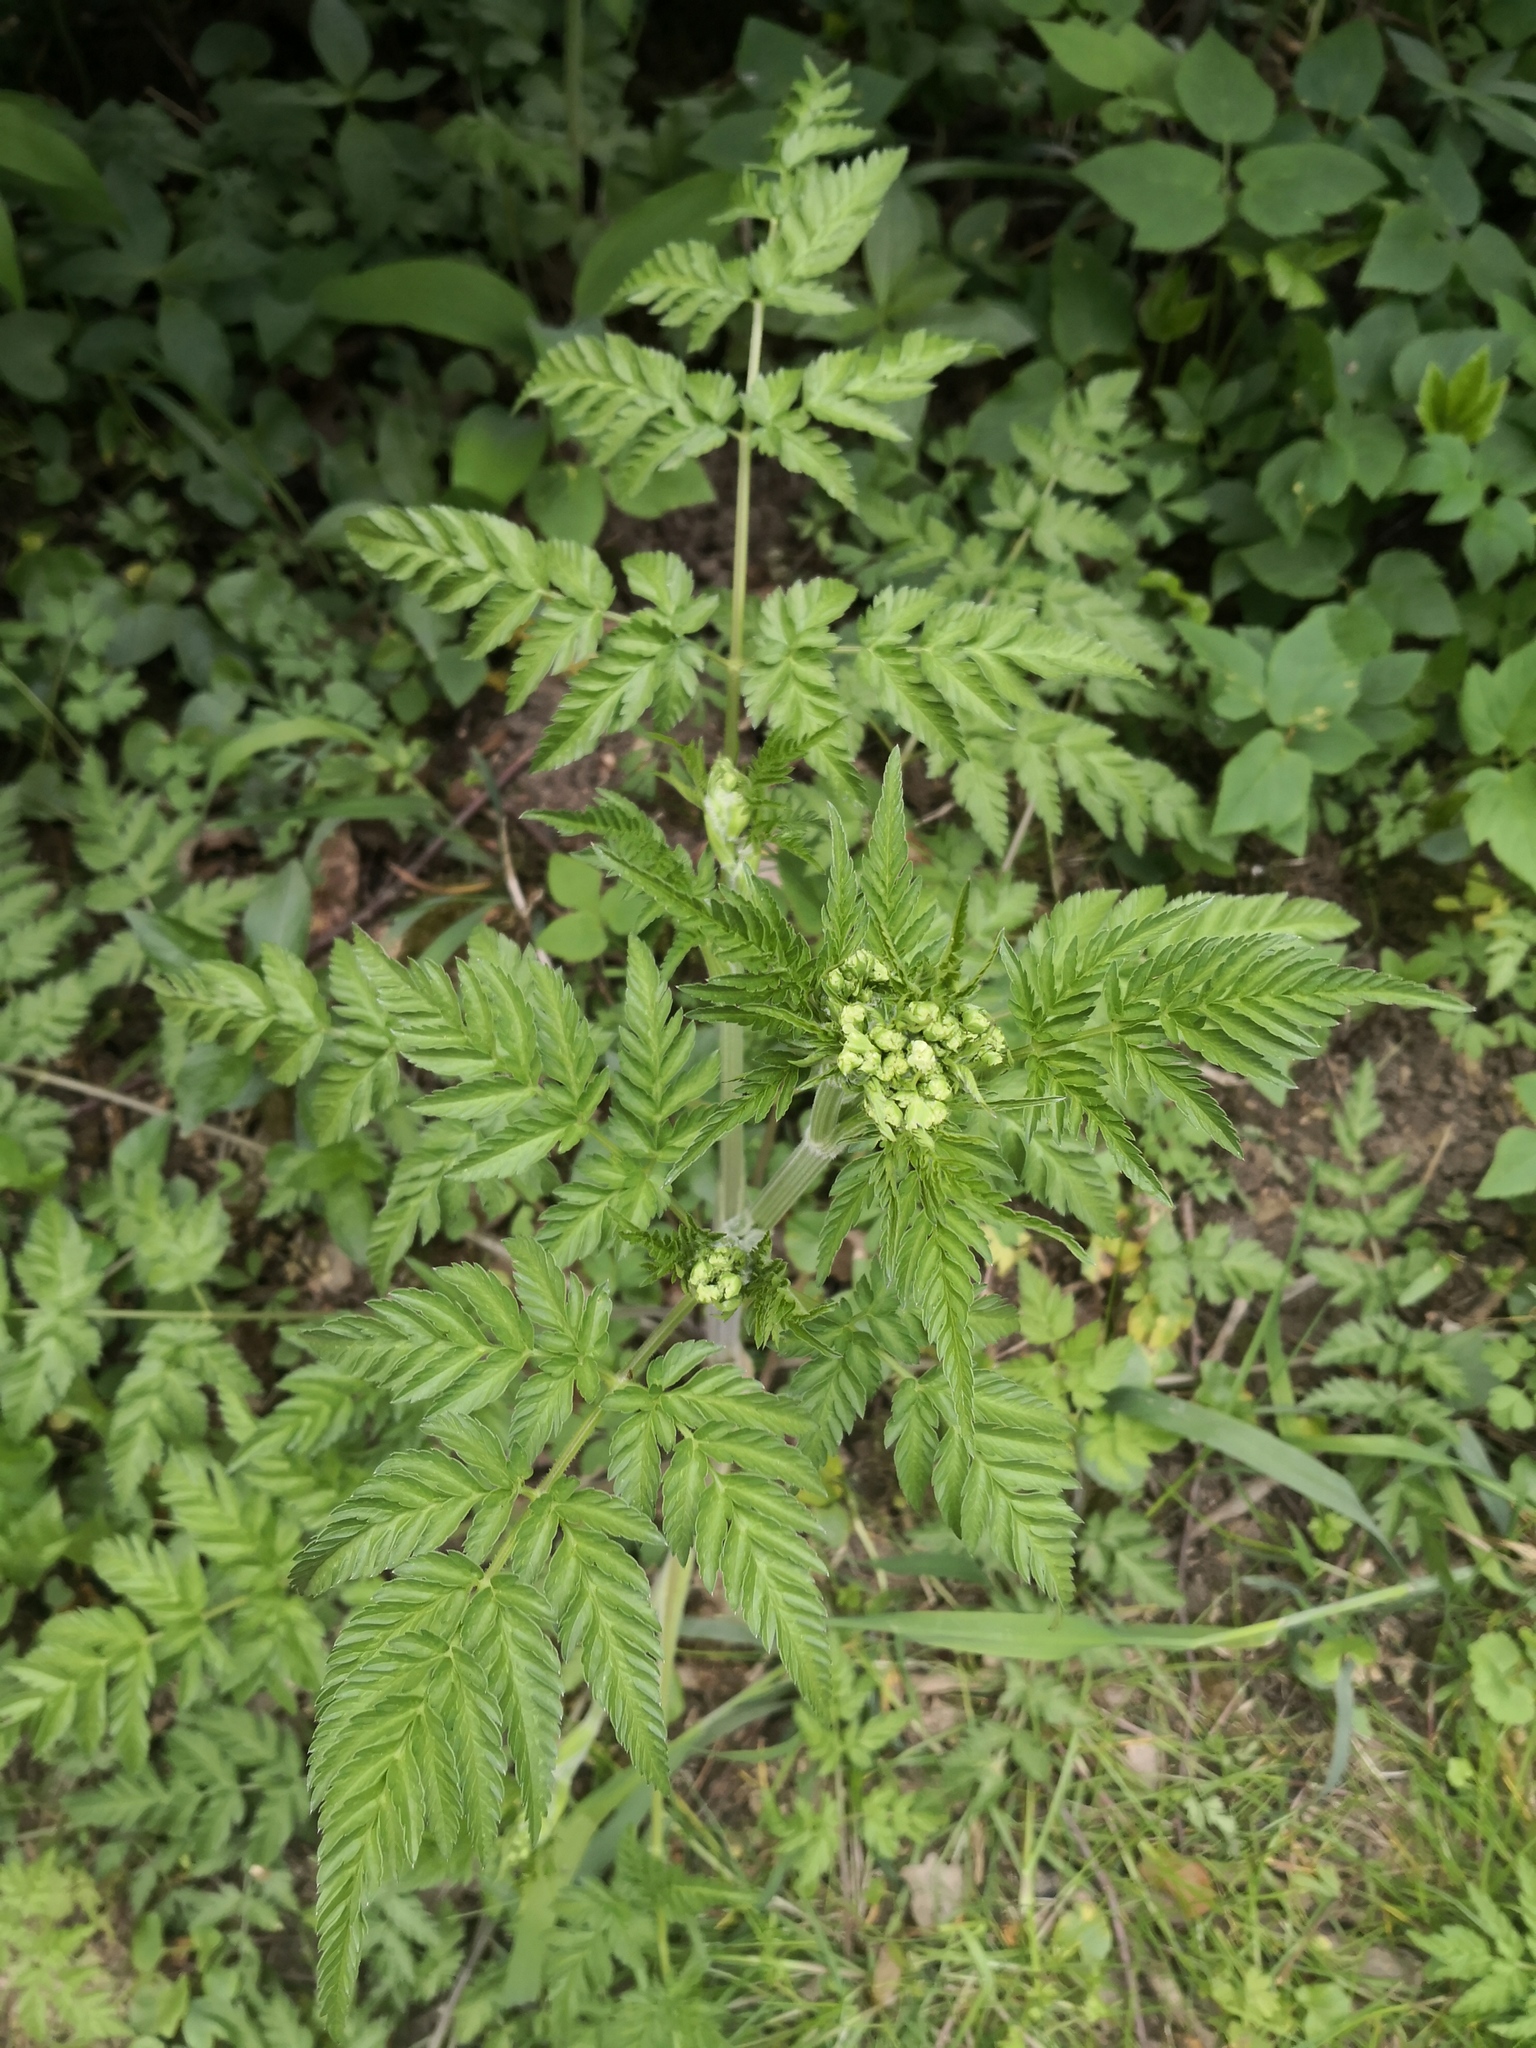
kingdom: Plantae
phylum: Tracheophyta
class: Magnoliopsida
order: Apiales
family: Apiaceae
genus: Anthriscus
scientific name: Anthriscus sylvestris
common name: Cow parsley
